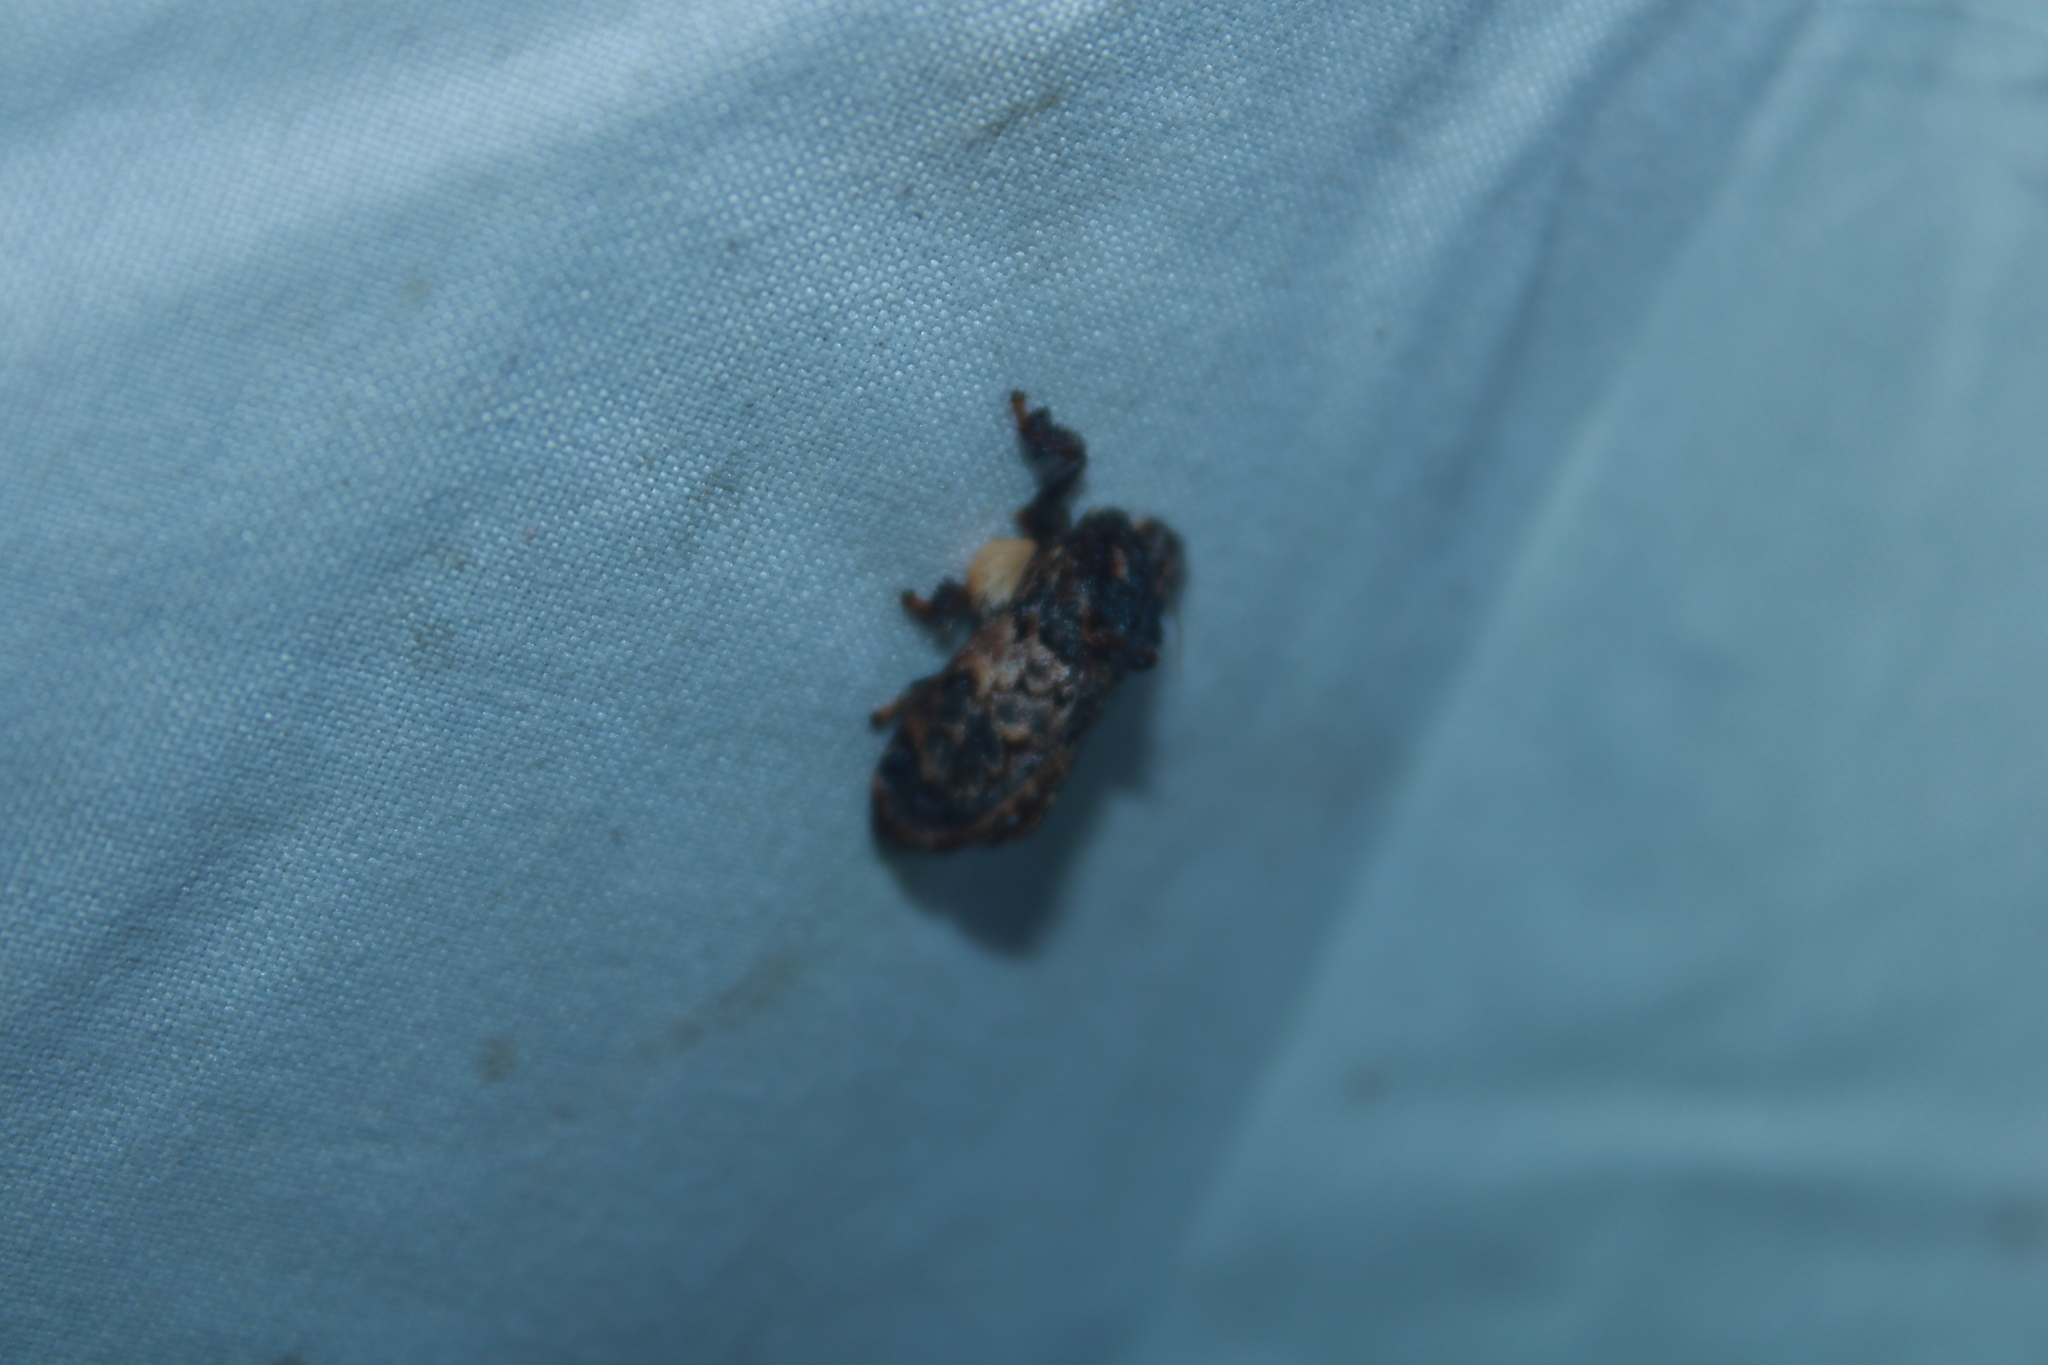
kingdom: Animalia
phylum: Arthropoda
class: Insecta
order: Lepidoptera
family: Limacodidae
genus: Phobetron
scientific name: Phobetron pithecium
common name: Hag moth
